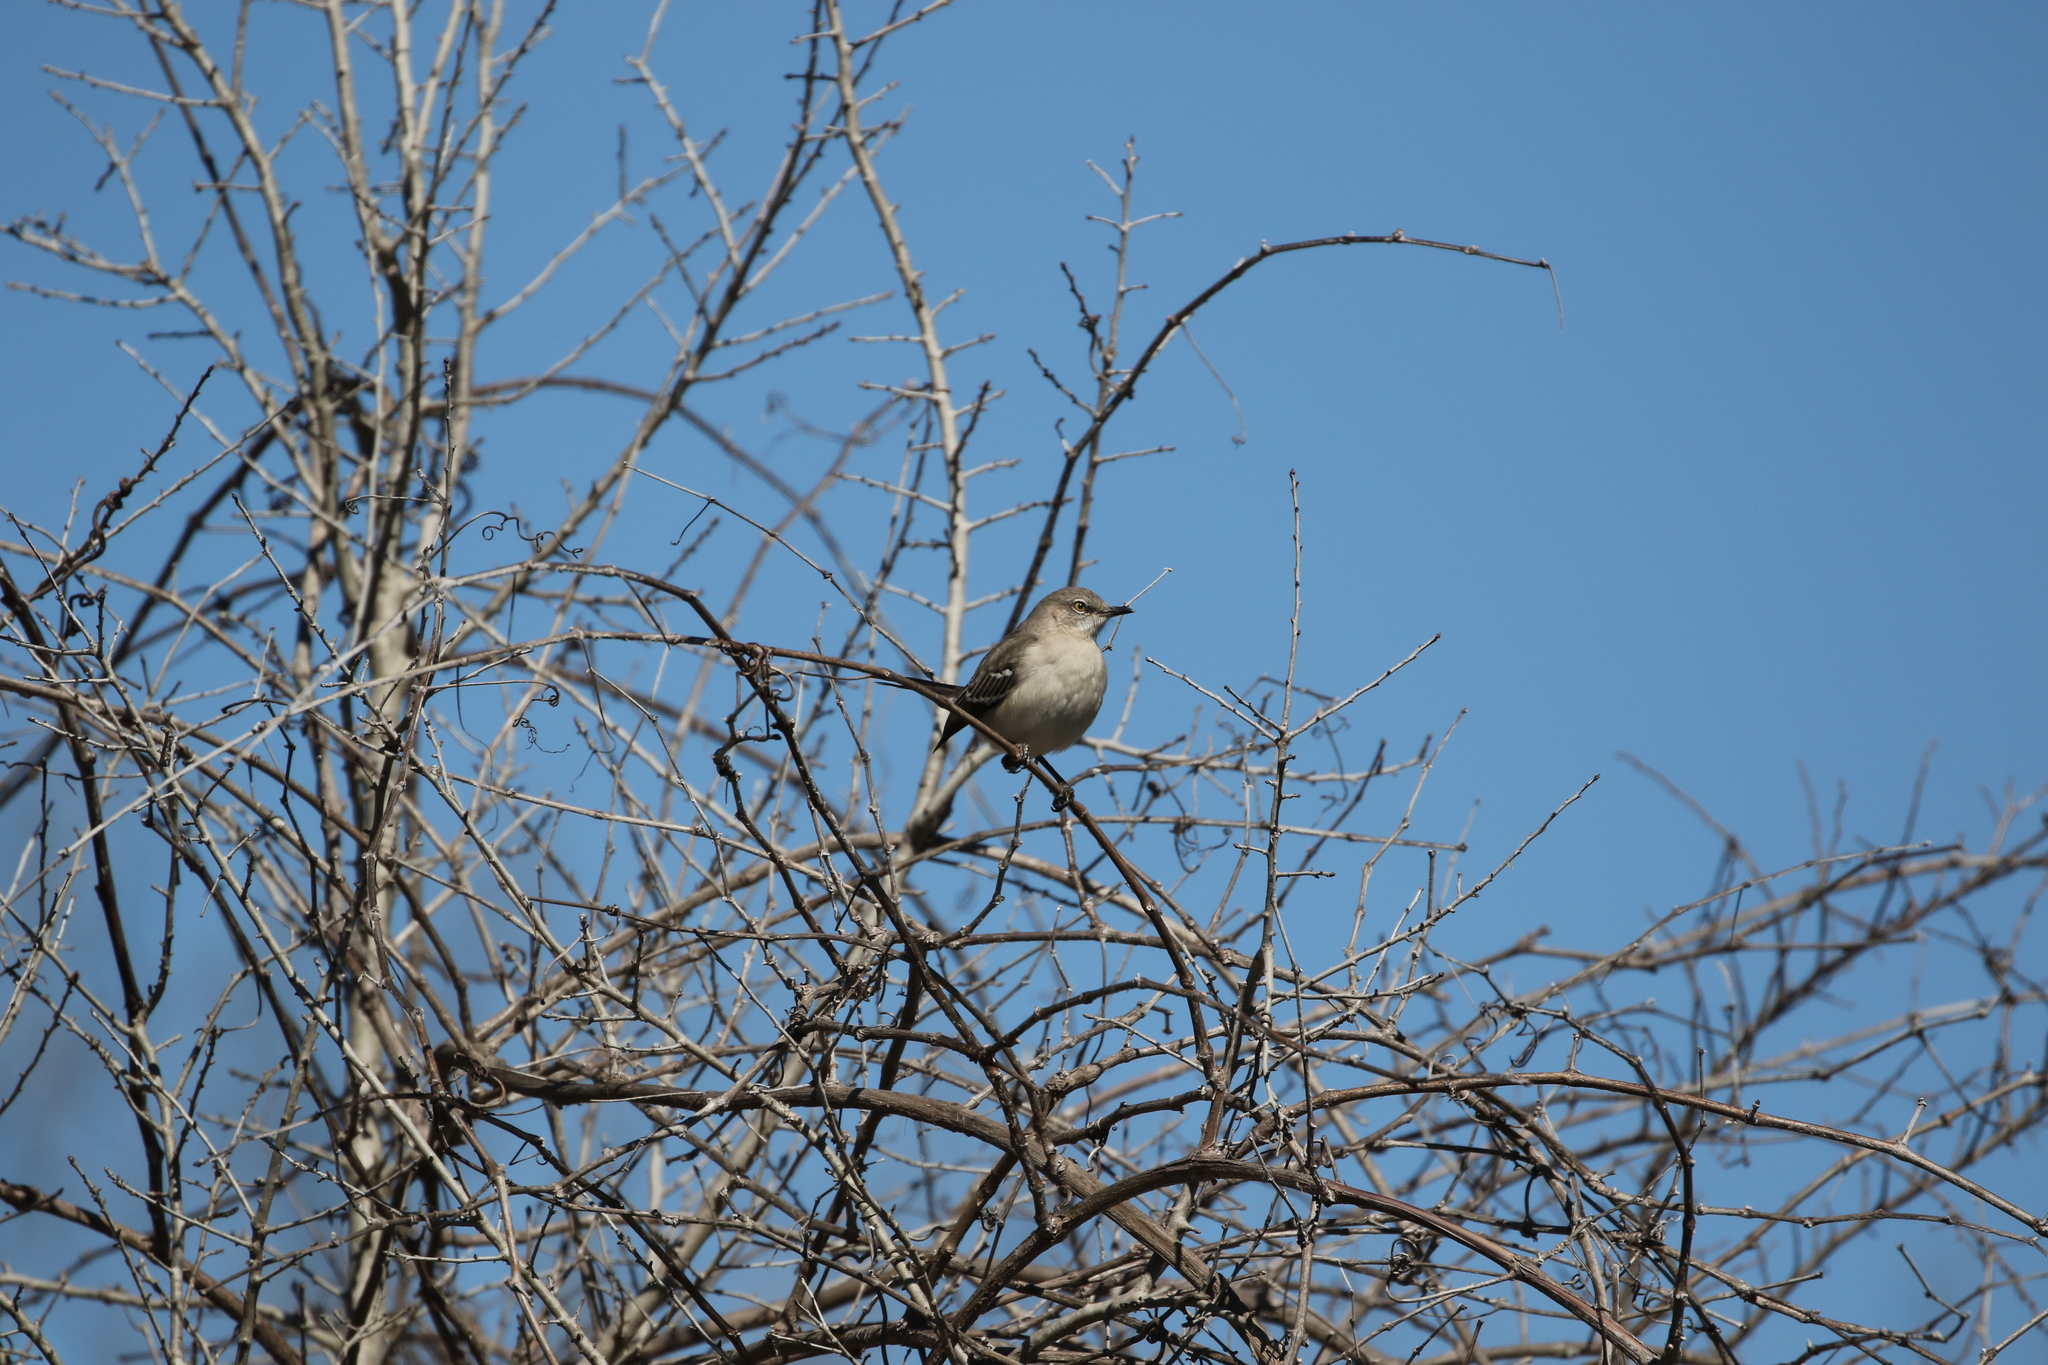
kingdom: Animalia
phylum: Chordata
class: Aves
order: Passeriformes
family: Mimidae
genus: Mimus
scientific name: Mimus polyglottos
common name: Northern mockingbird
